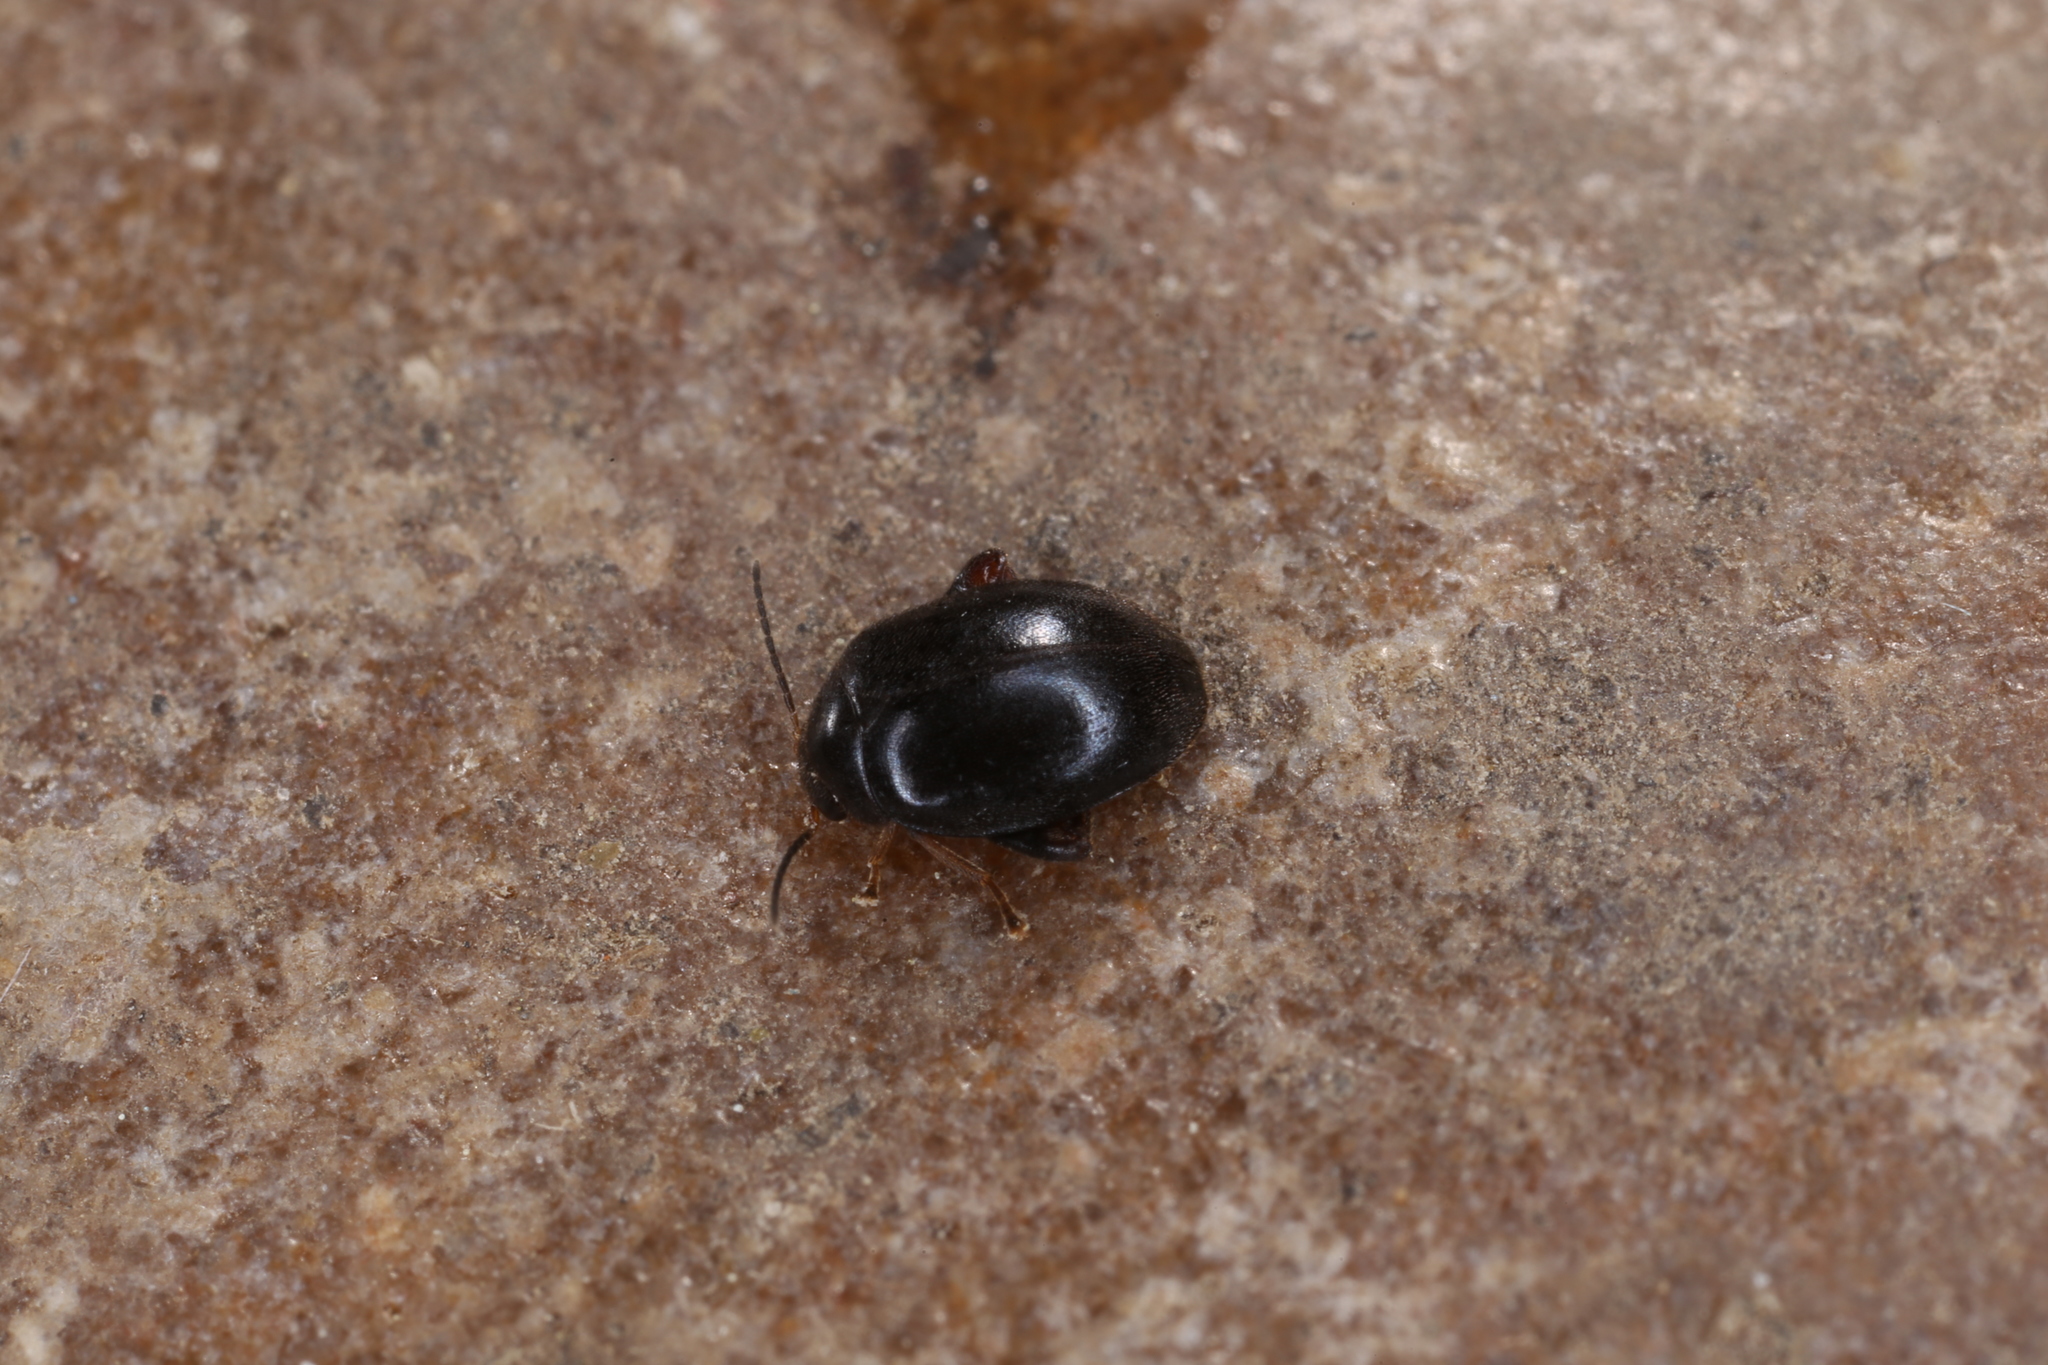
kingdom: Animalia
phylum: Arthropoda
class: Insecta
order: Coleoptera
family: Scirtidae
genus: Scirtes
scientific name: Scirtes hemisphaericus
